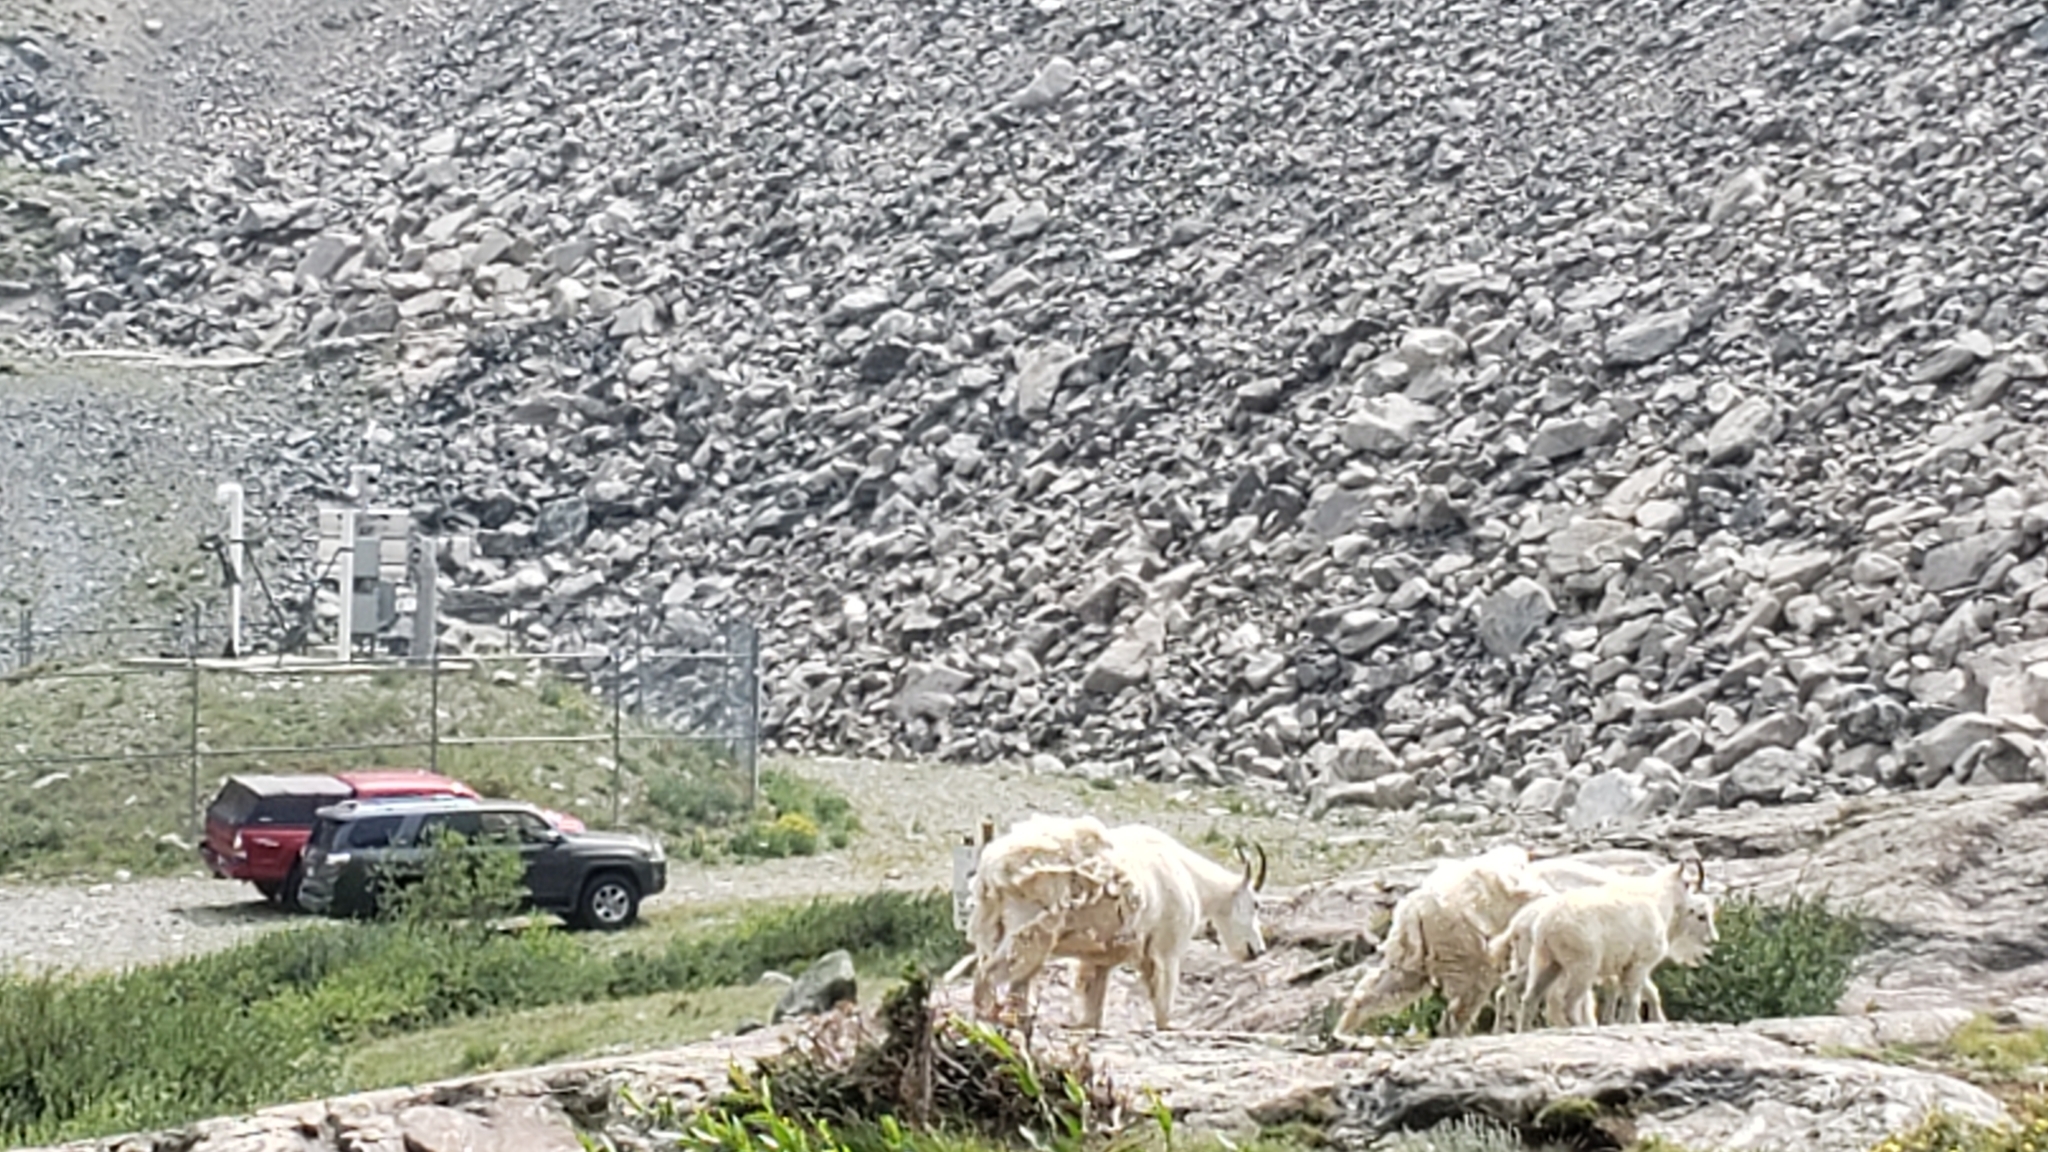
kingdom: Animalia
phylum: Chordata
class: Mammalia
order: Artiodactyla
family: Bovidae
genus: Oreamnos
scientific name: Oreamnos americanus
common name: Mountain goat
